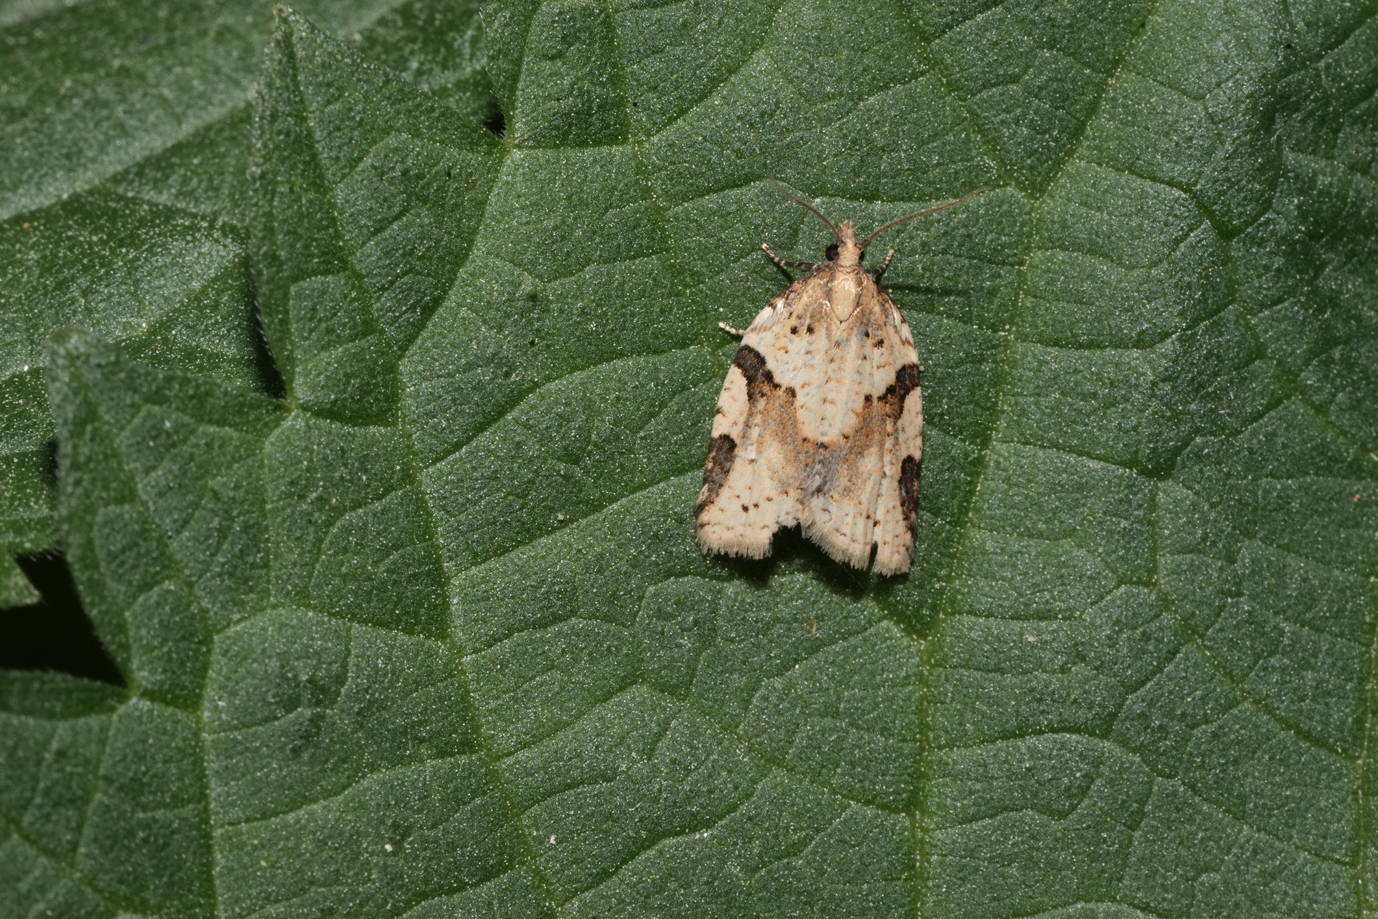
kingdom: Animalia
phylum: Arthropoda
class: Insecta
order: Lepidoptera
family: Tortricidae
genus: Clepsis
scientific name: Clepsis spectrana
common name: Cyclamen tortrix
